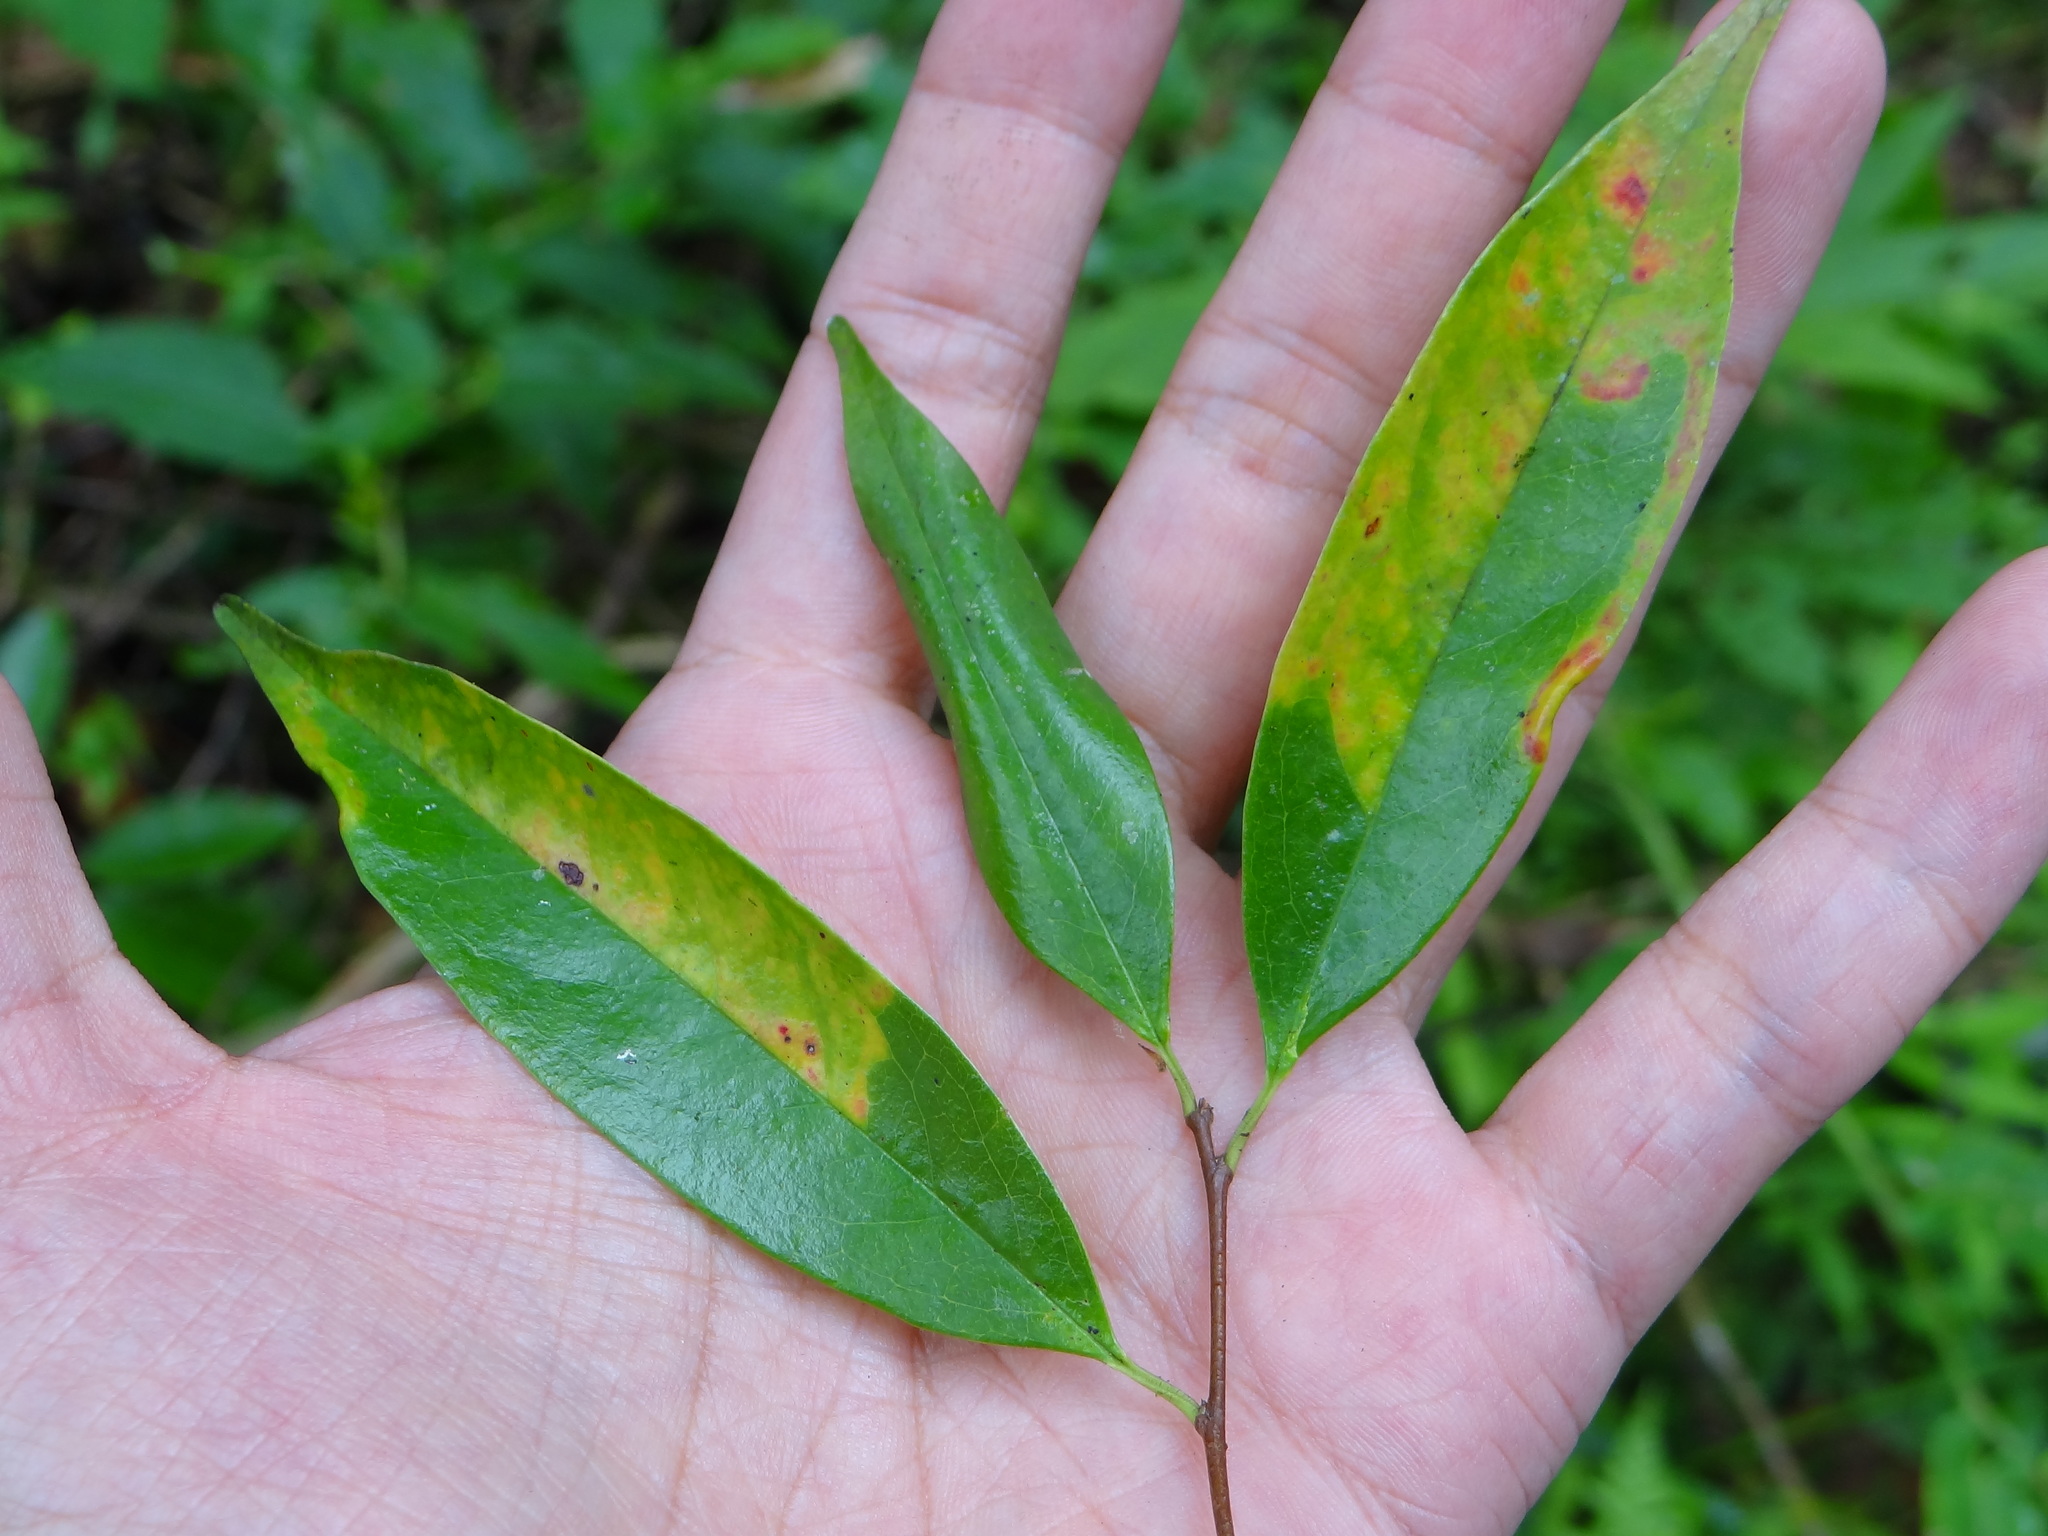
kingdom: Plantae
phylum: Tracheophyta
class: Magnoliopsida
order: Rosales
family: Rosaceae
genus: Prunus
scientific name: Prunus phaeosticta
